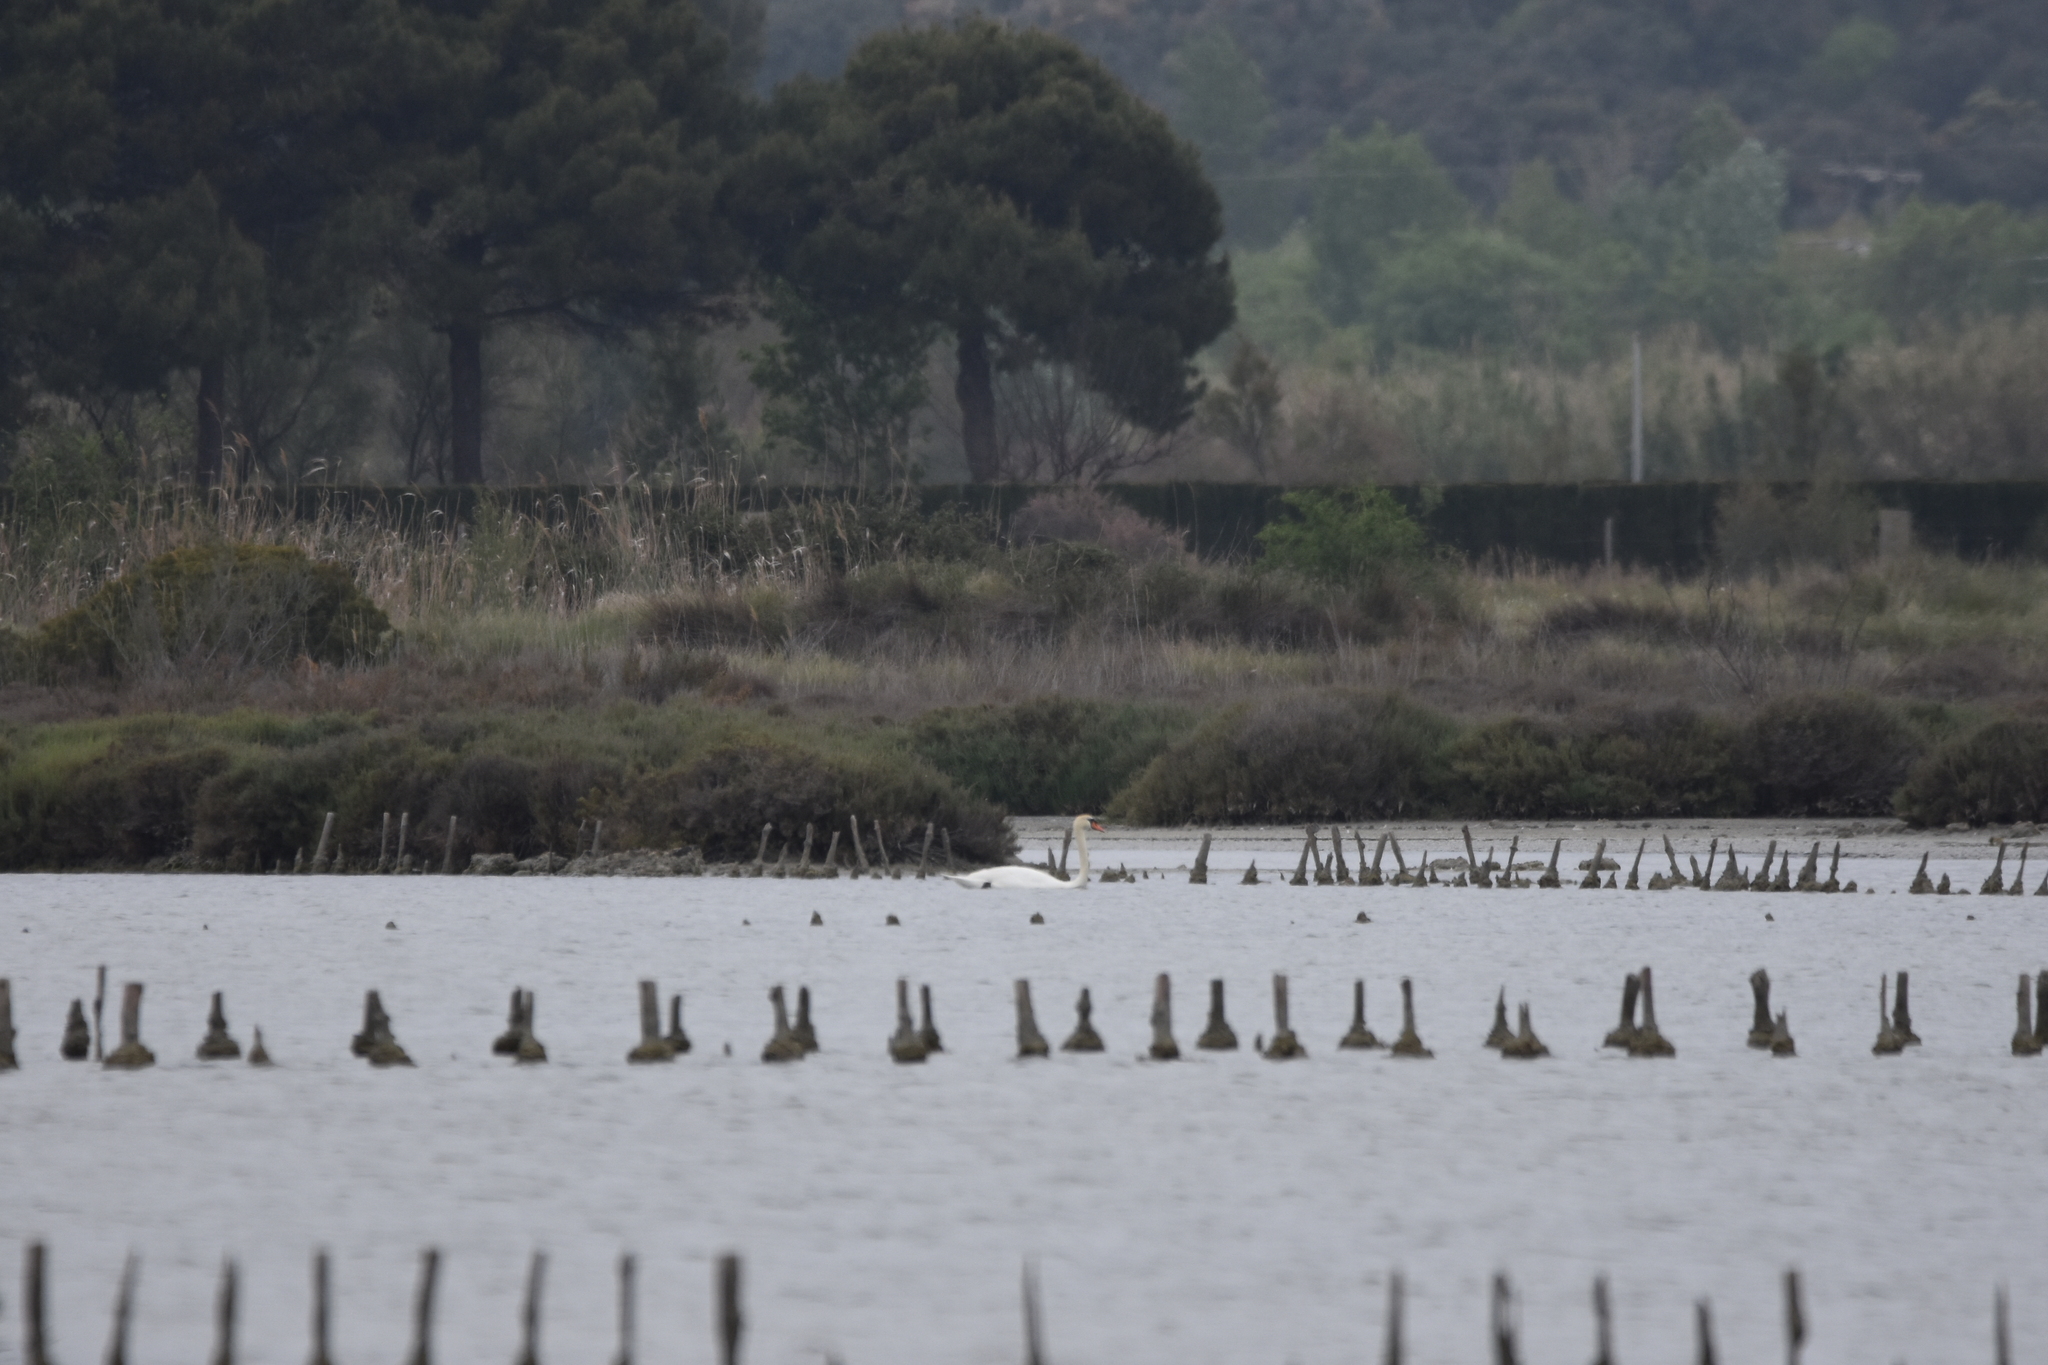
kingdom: Animalia
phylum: Chordata
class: Aves
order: Anseriformes
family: Anatidae
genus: Cygnus
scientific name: Cygnus olor
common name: Mute swan
